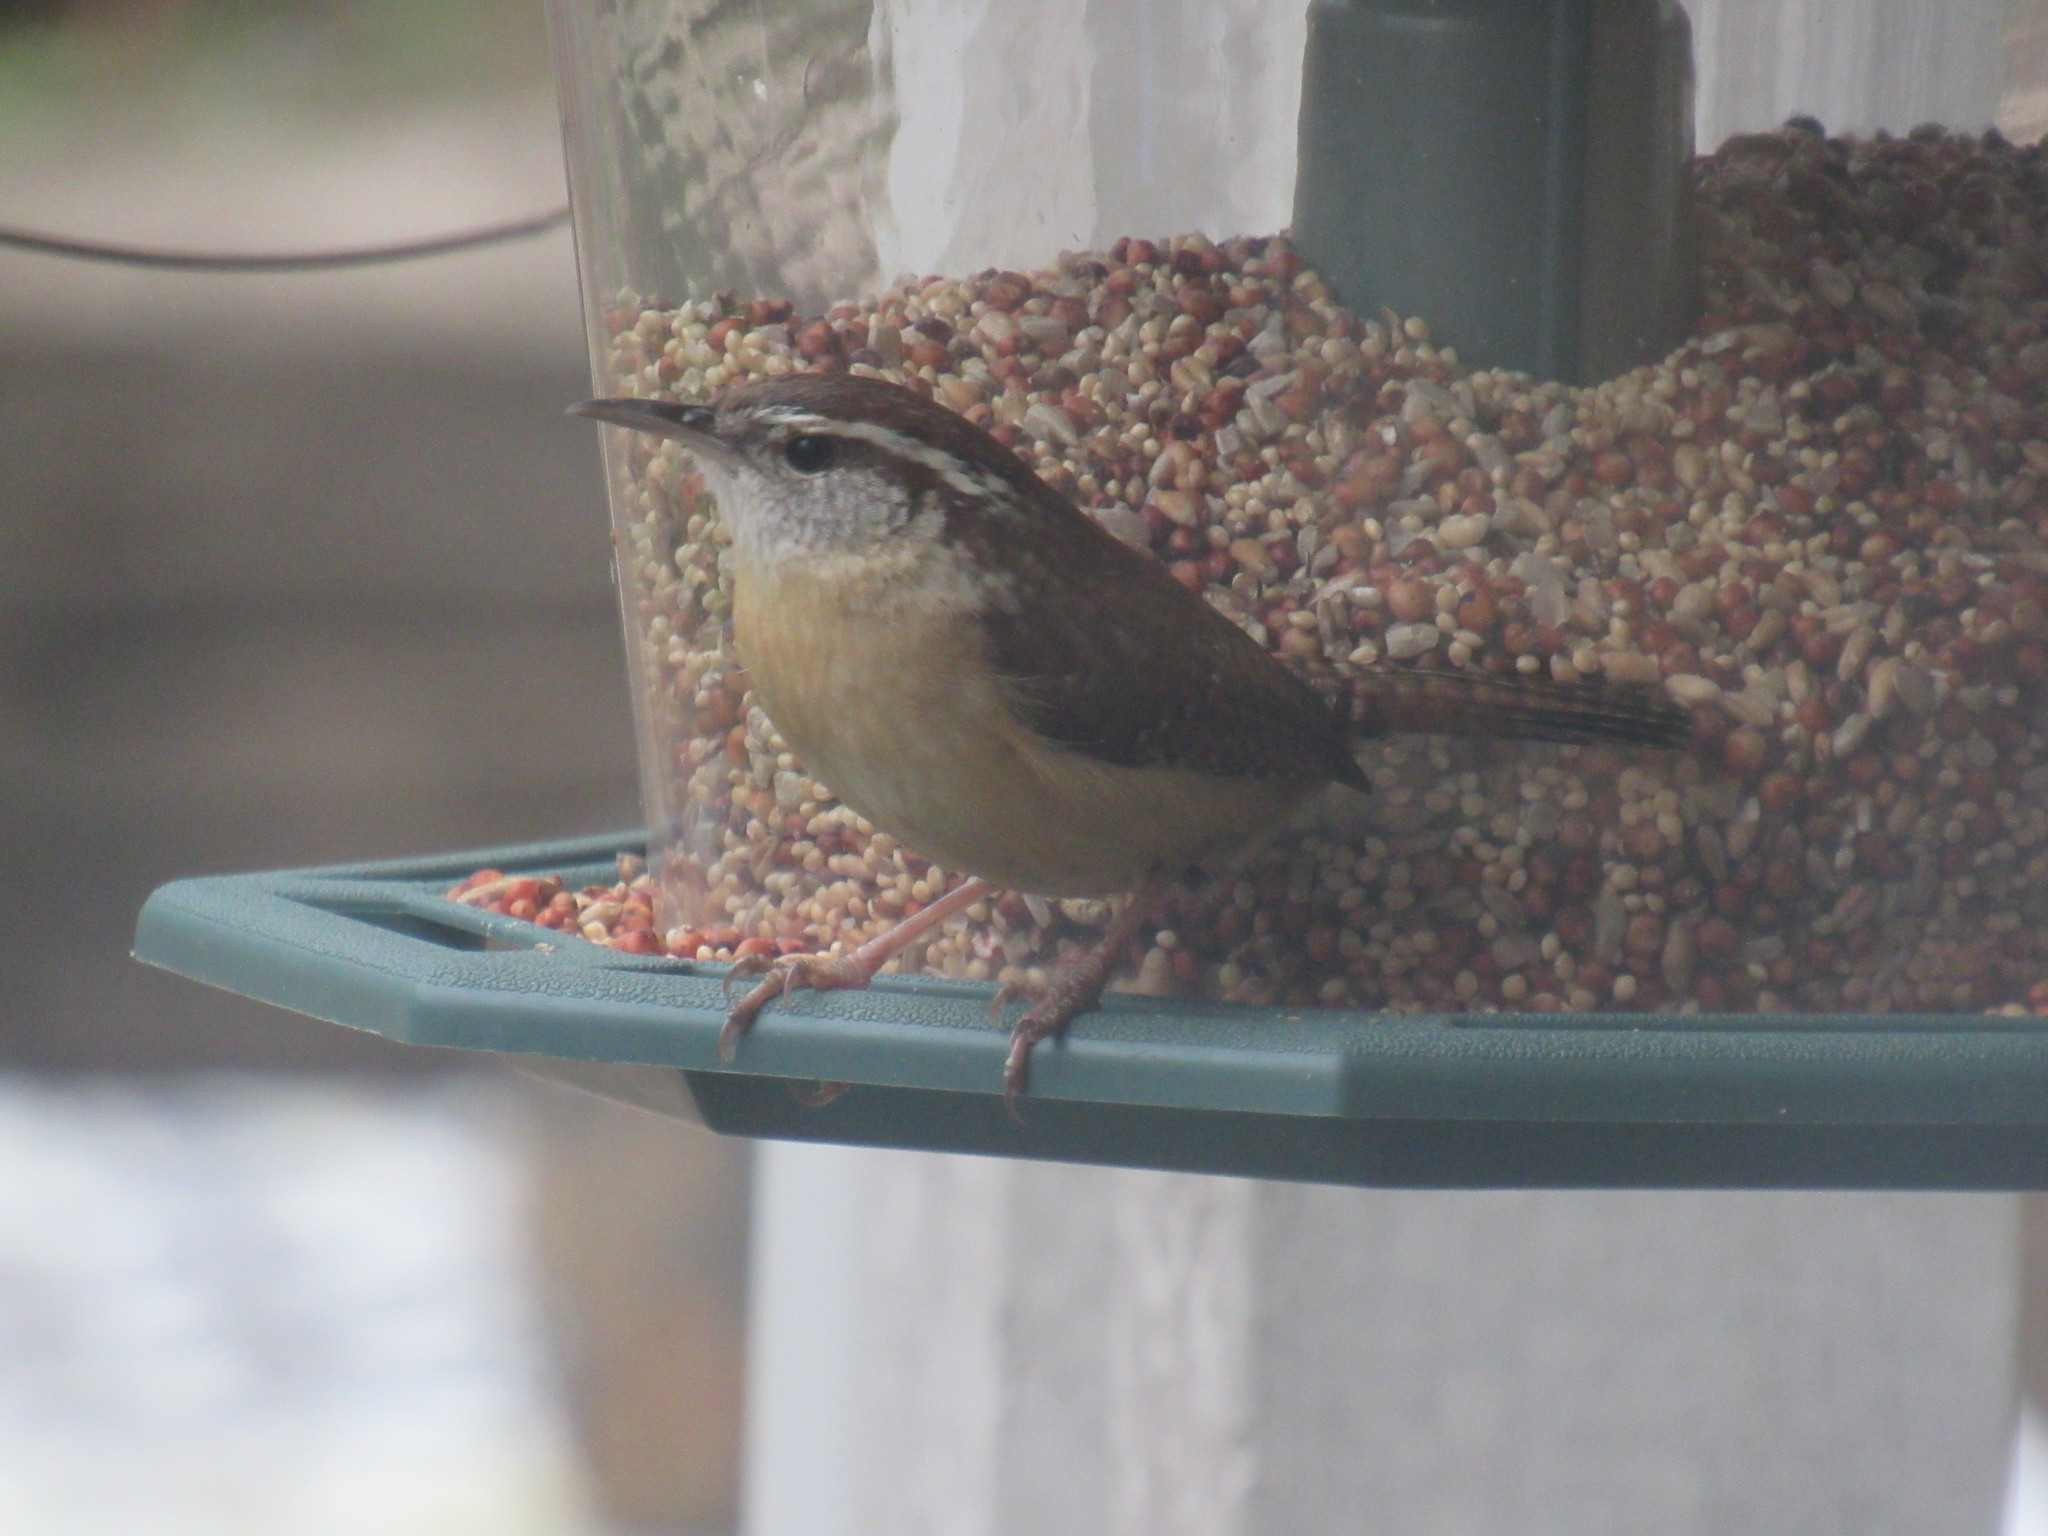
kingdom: Animalia
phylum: Chordata
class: Aves
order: Passeriformes
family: Troglodytidae
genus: Thryothorus
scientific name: Thryothorus ludovicianus
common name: Carolina wren
